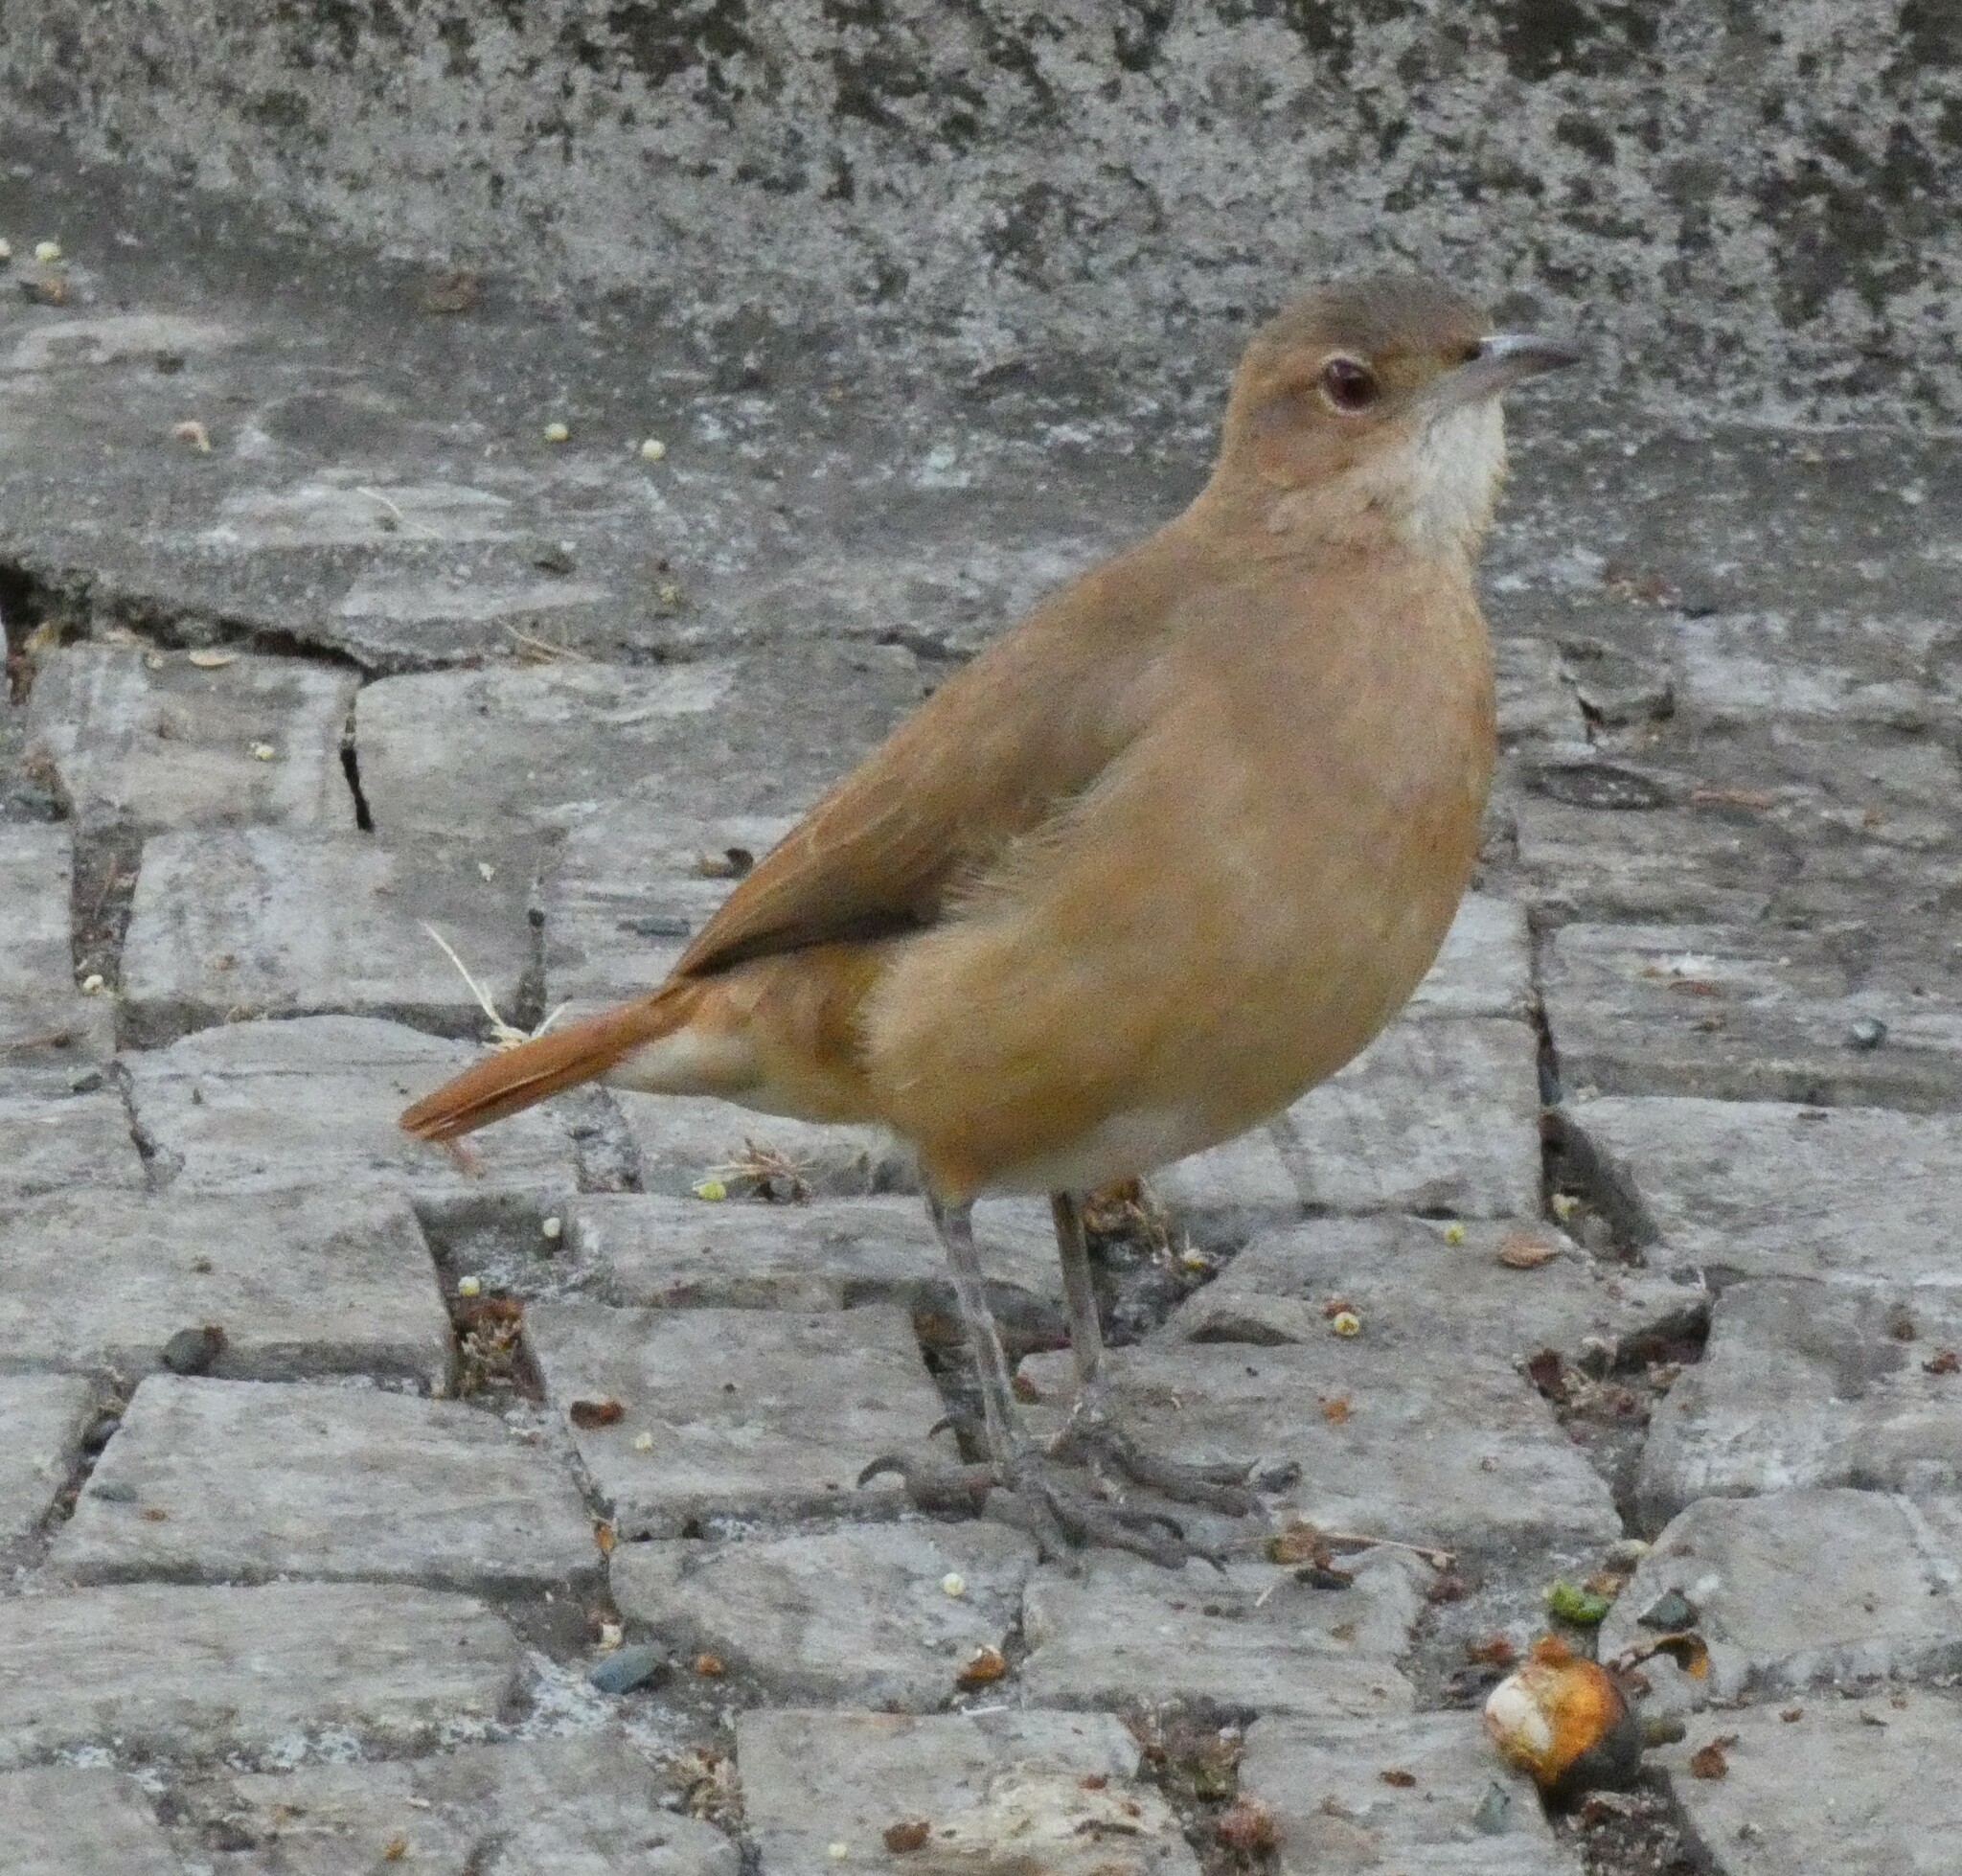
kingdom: Animalia
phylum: Chordata
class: Aves
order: Passeriformes
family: Furnariidae
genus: Furnarius
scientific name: Furnarius rufus
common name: Rufous hornero
